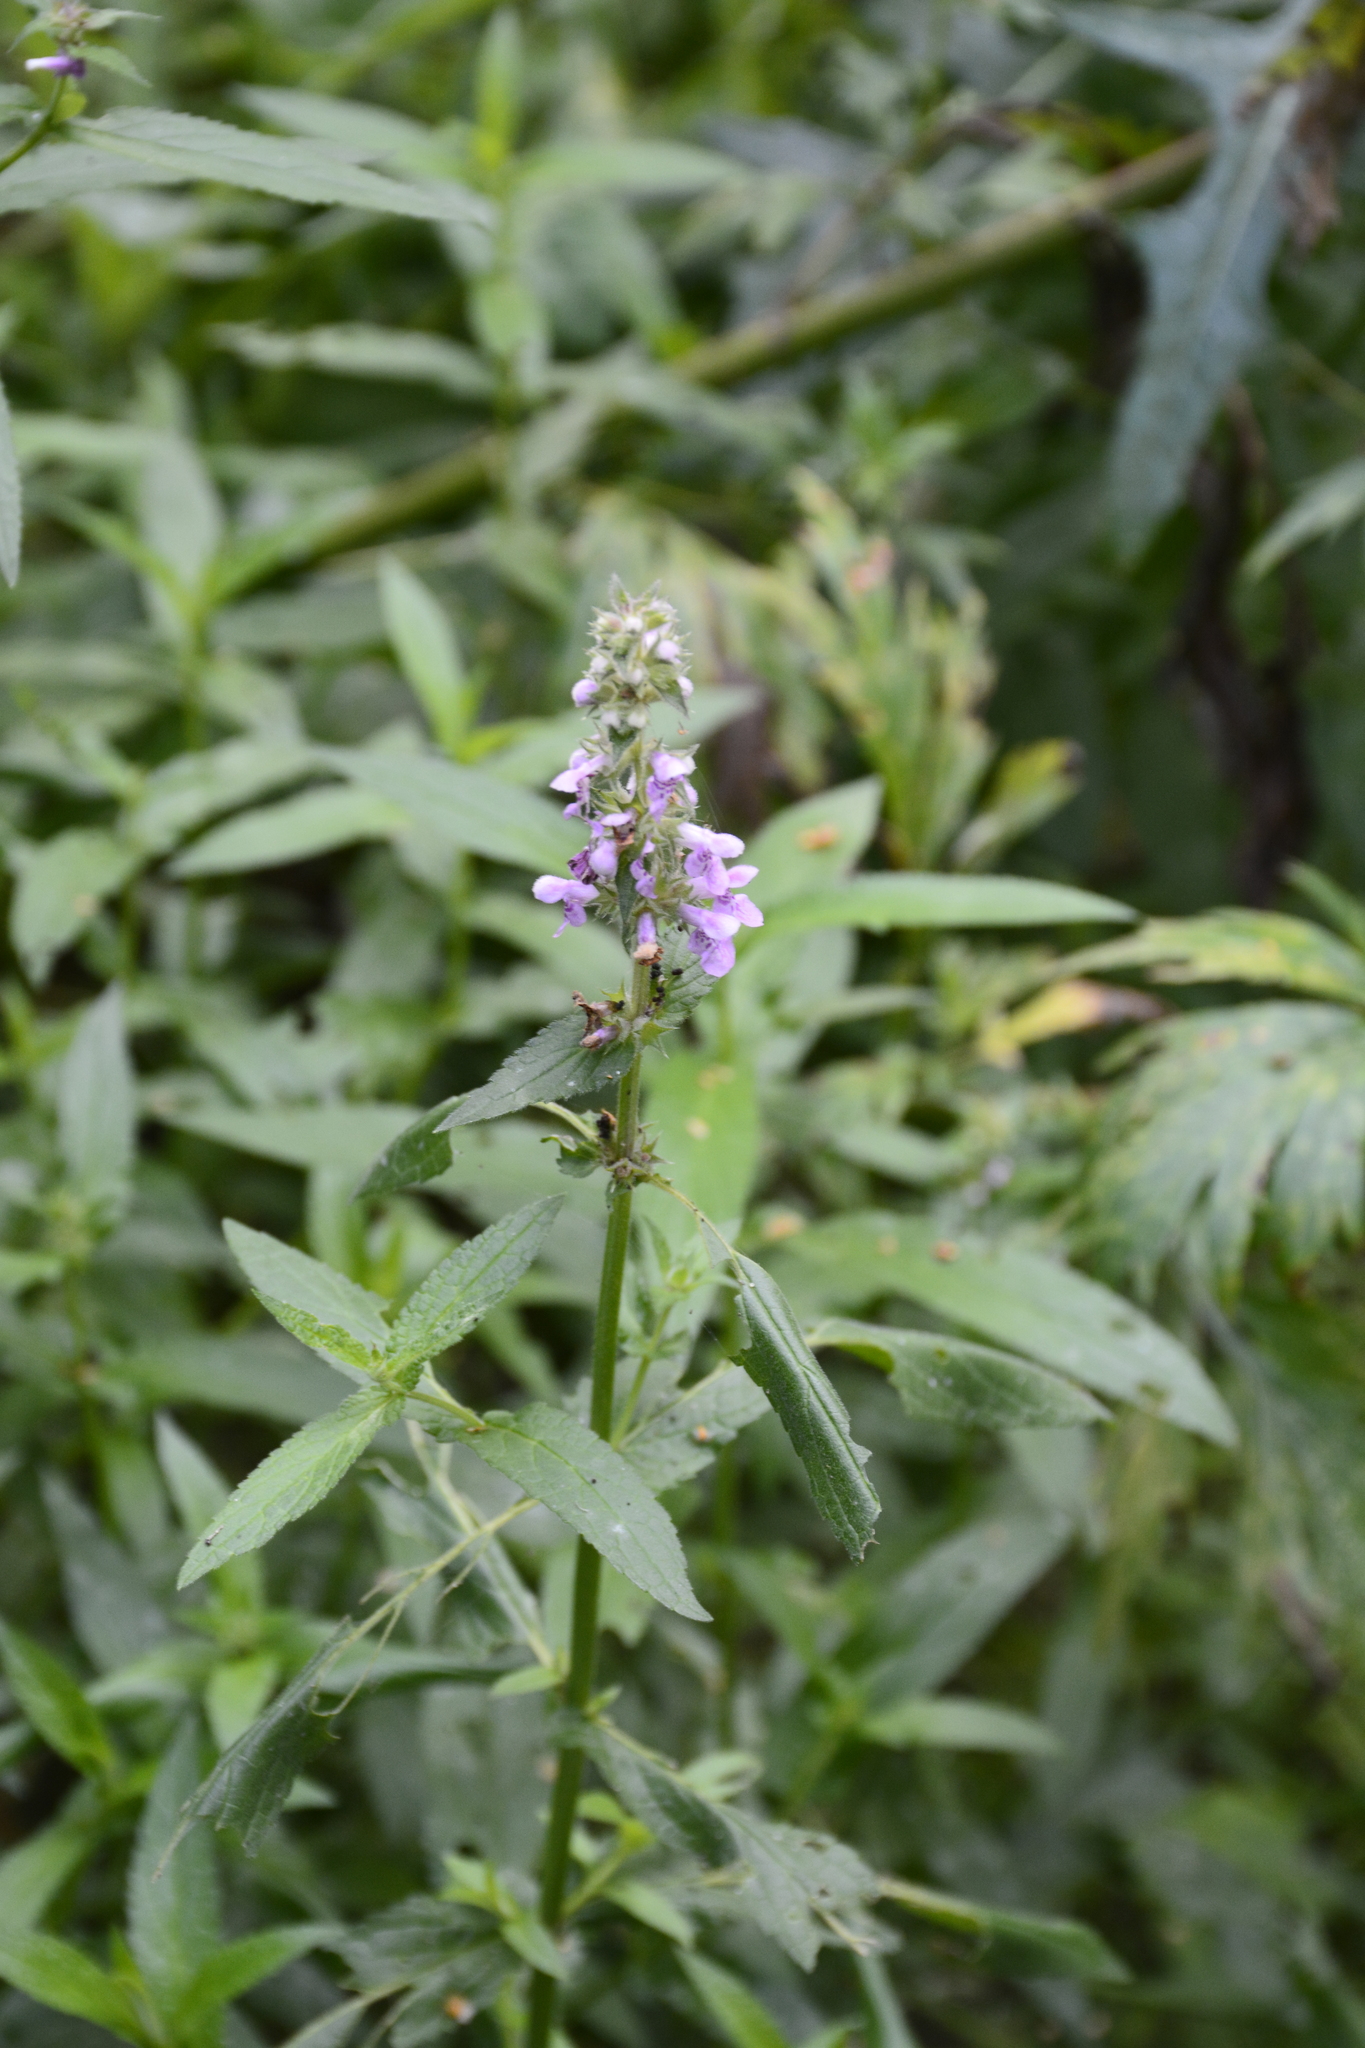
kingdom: Plantae
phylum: Tracheophyta
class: Magnoliopsida
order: Lamiales
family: Lamiaceae
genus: Stachys
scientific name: Stachys palustris
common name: Marsh woundwort
